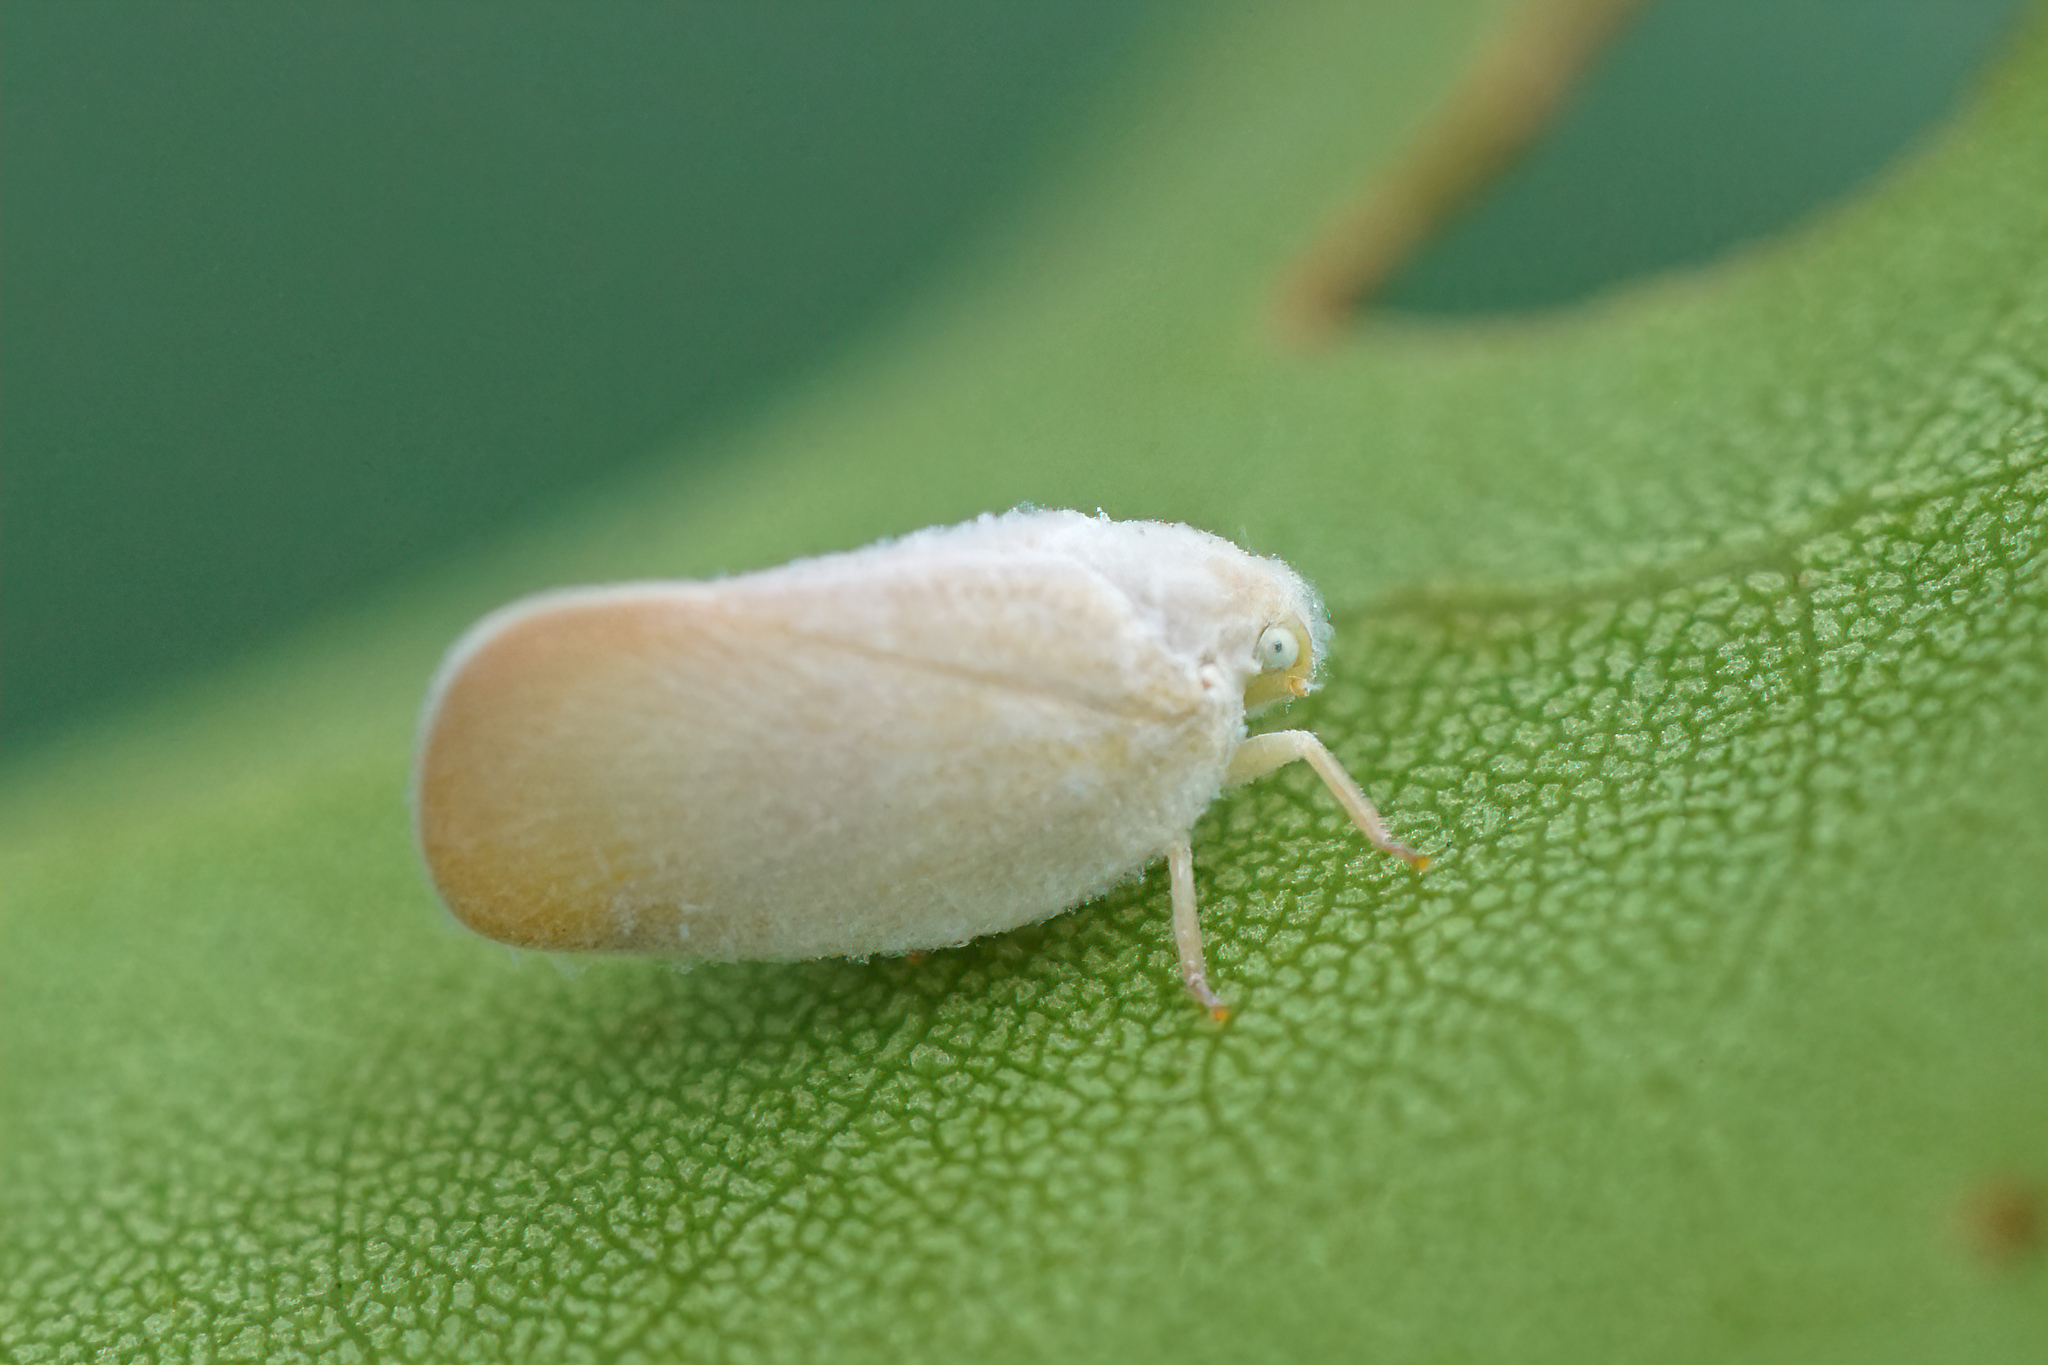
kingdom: Animalia
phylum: Arthropoda
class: Insecta
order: Hemiptera
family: Flatidae
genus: Ormenoides
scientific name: Ormenoides venusta
